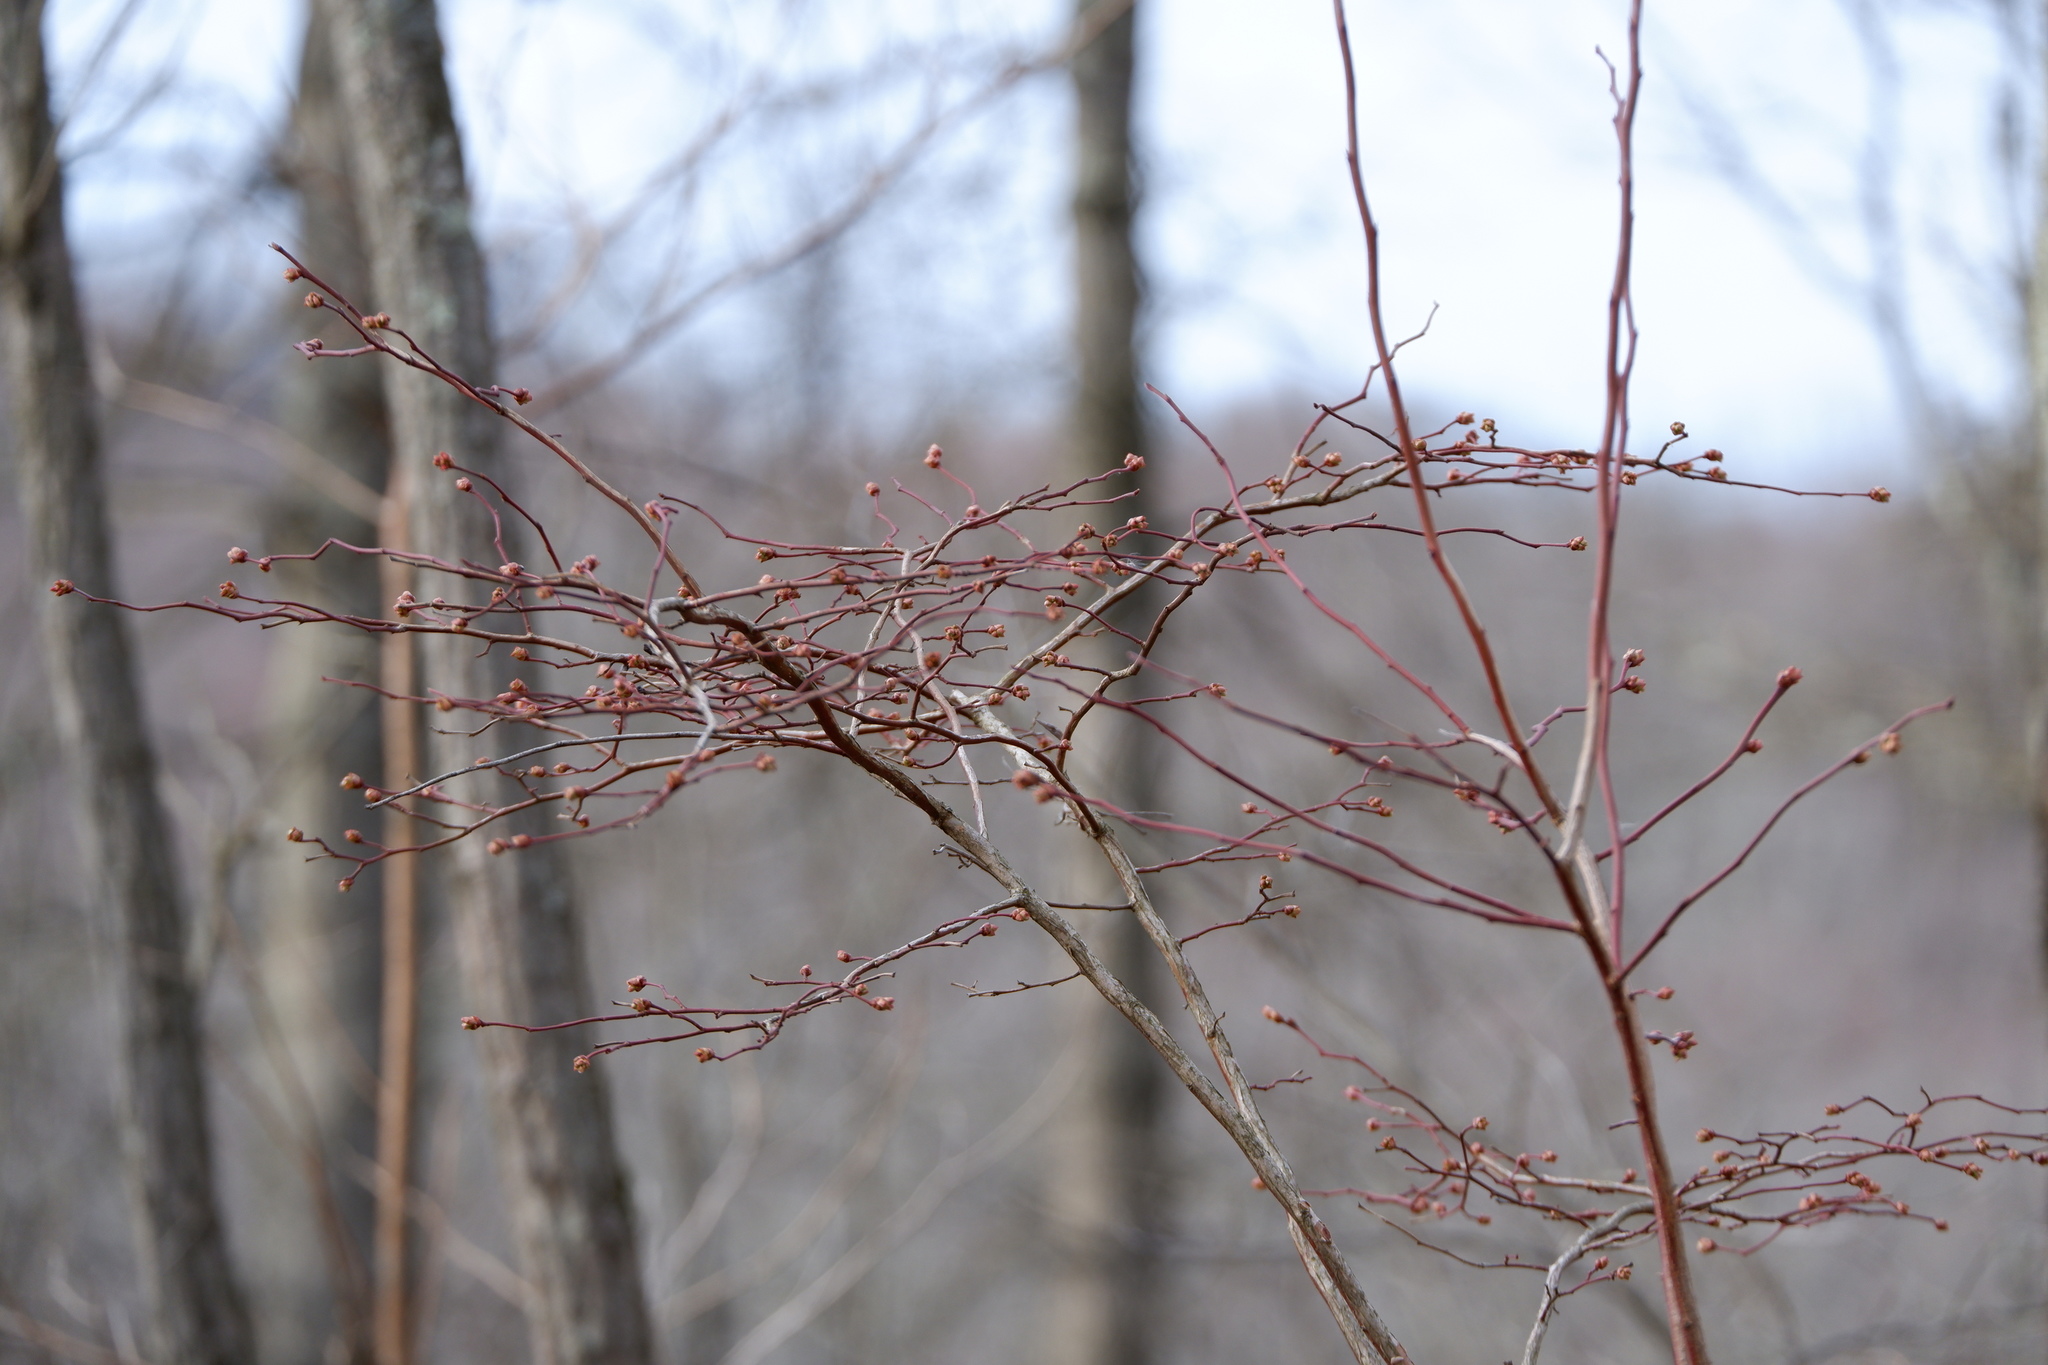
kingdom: Plantae
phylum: Tracheophyta
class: Magnoliopsida
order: Ericales
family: Ericaceae
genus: Vaccinium
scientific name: Vaccinium corymbosum
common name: Blueberry
